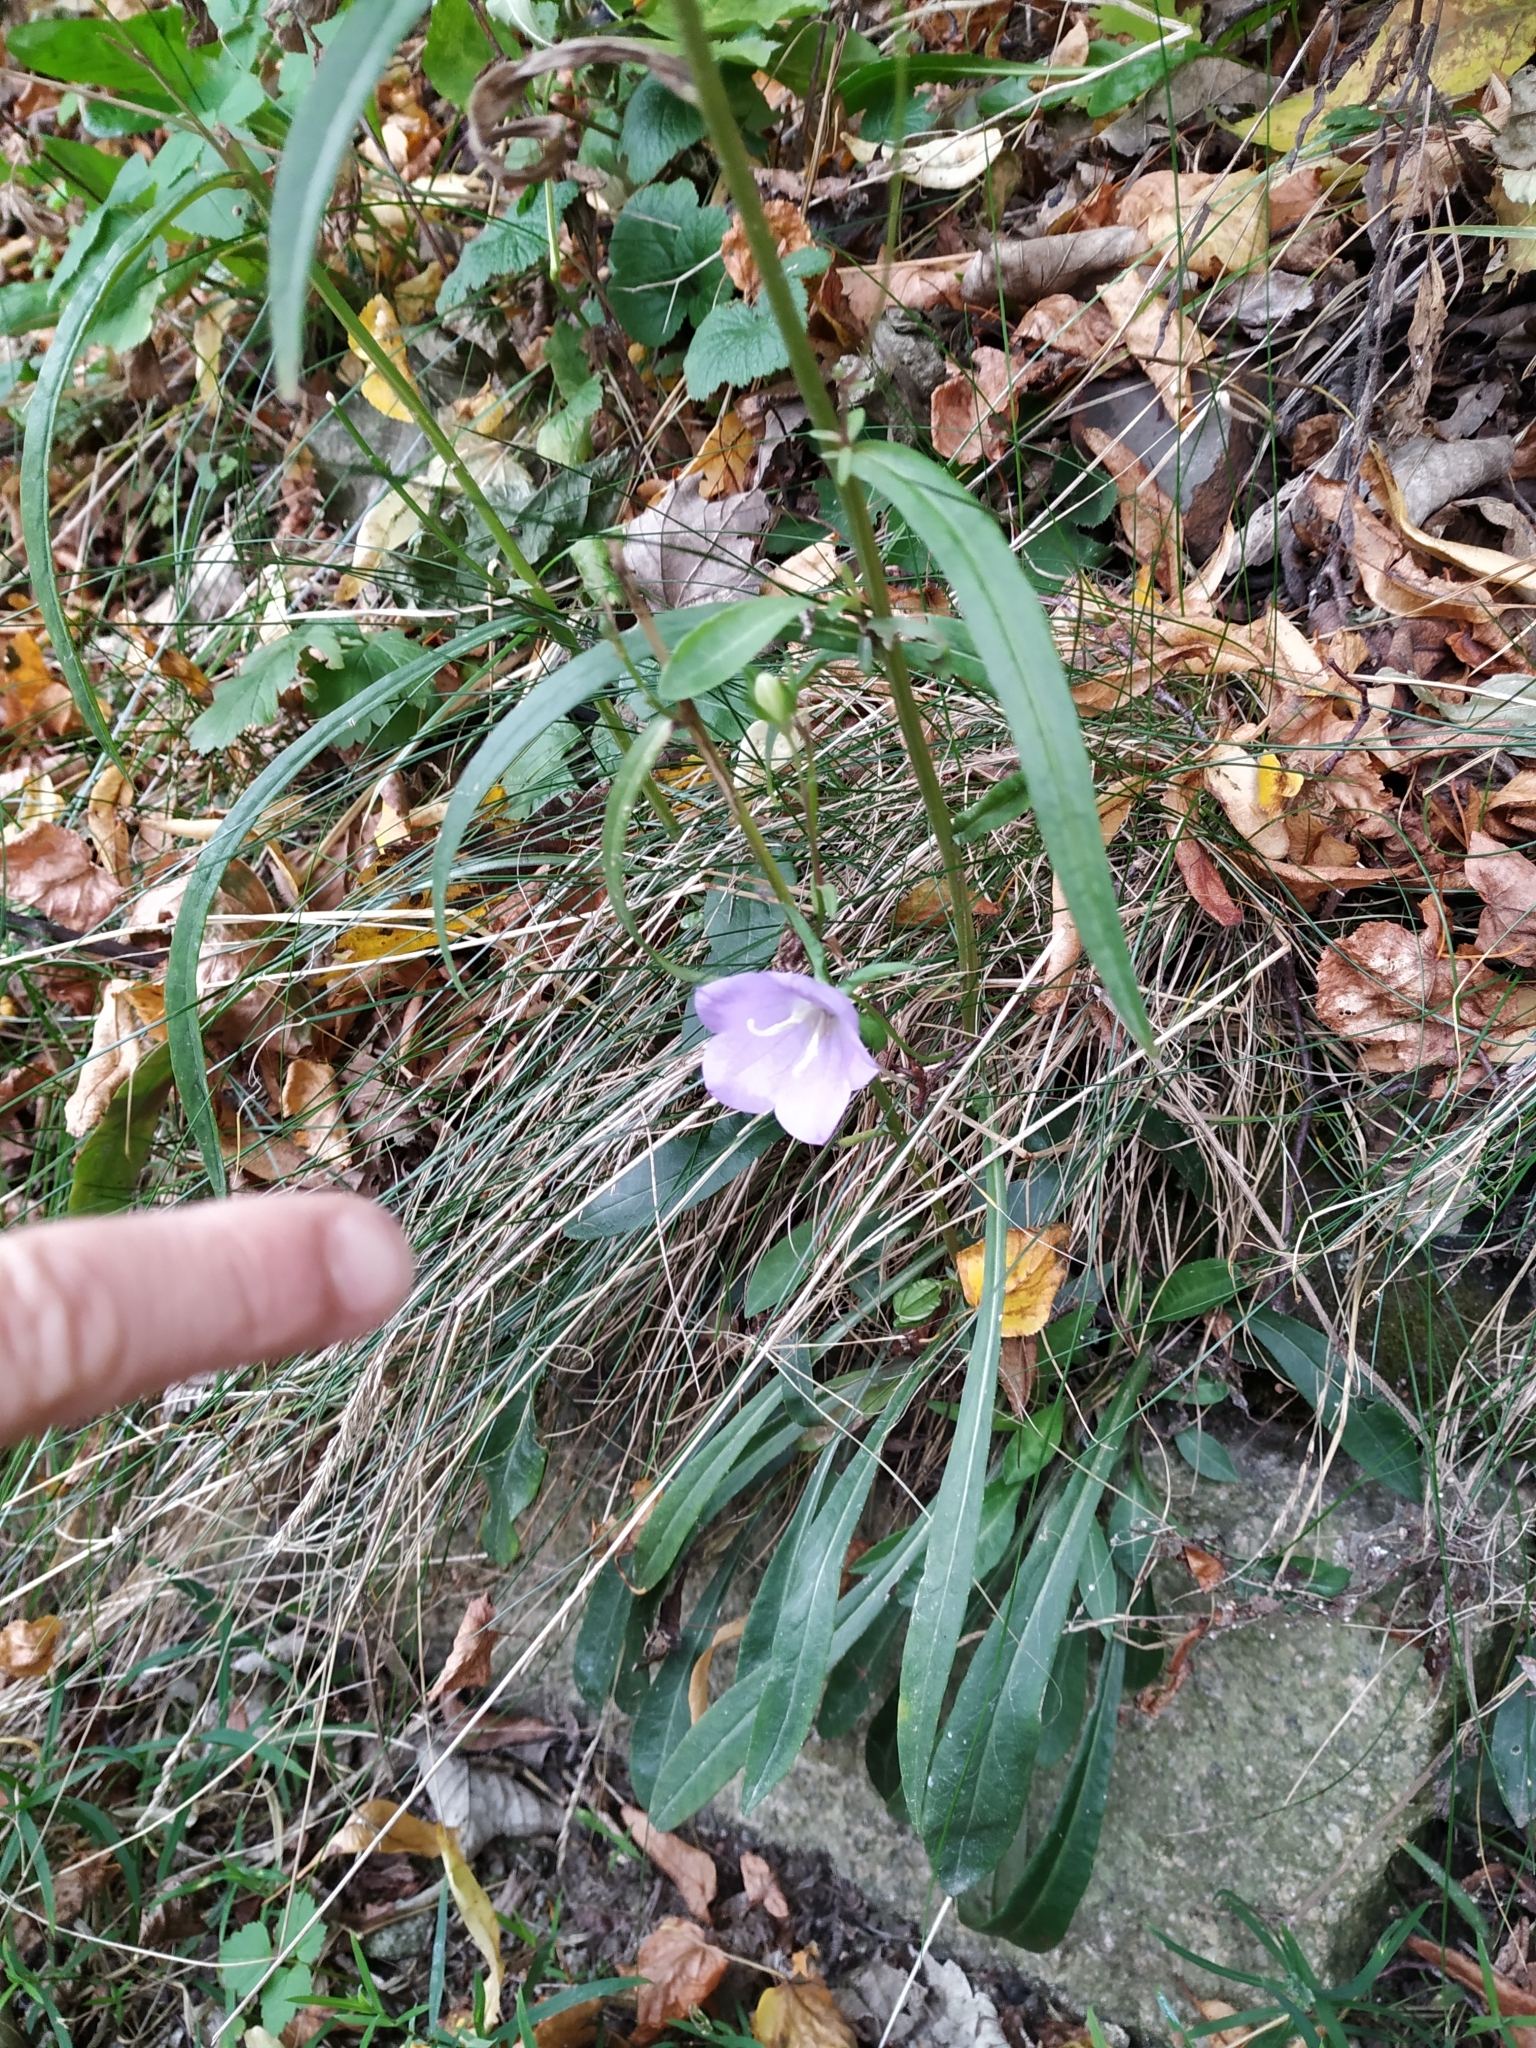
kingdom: Plantae
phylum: Tracheophyta
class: Magnoliopsida
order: Asterales
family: Campanulaceae
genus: Campanula
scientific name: Campanula persicifolia
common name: Peach-leaved bellflower
